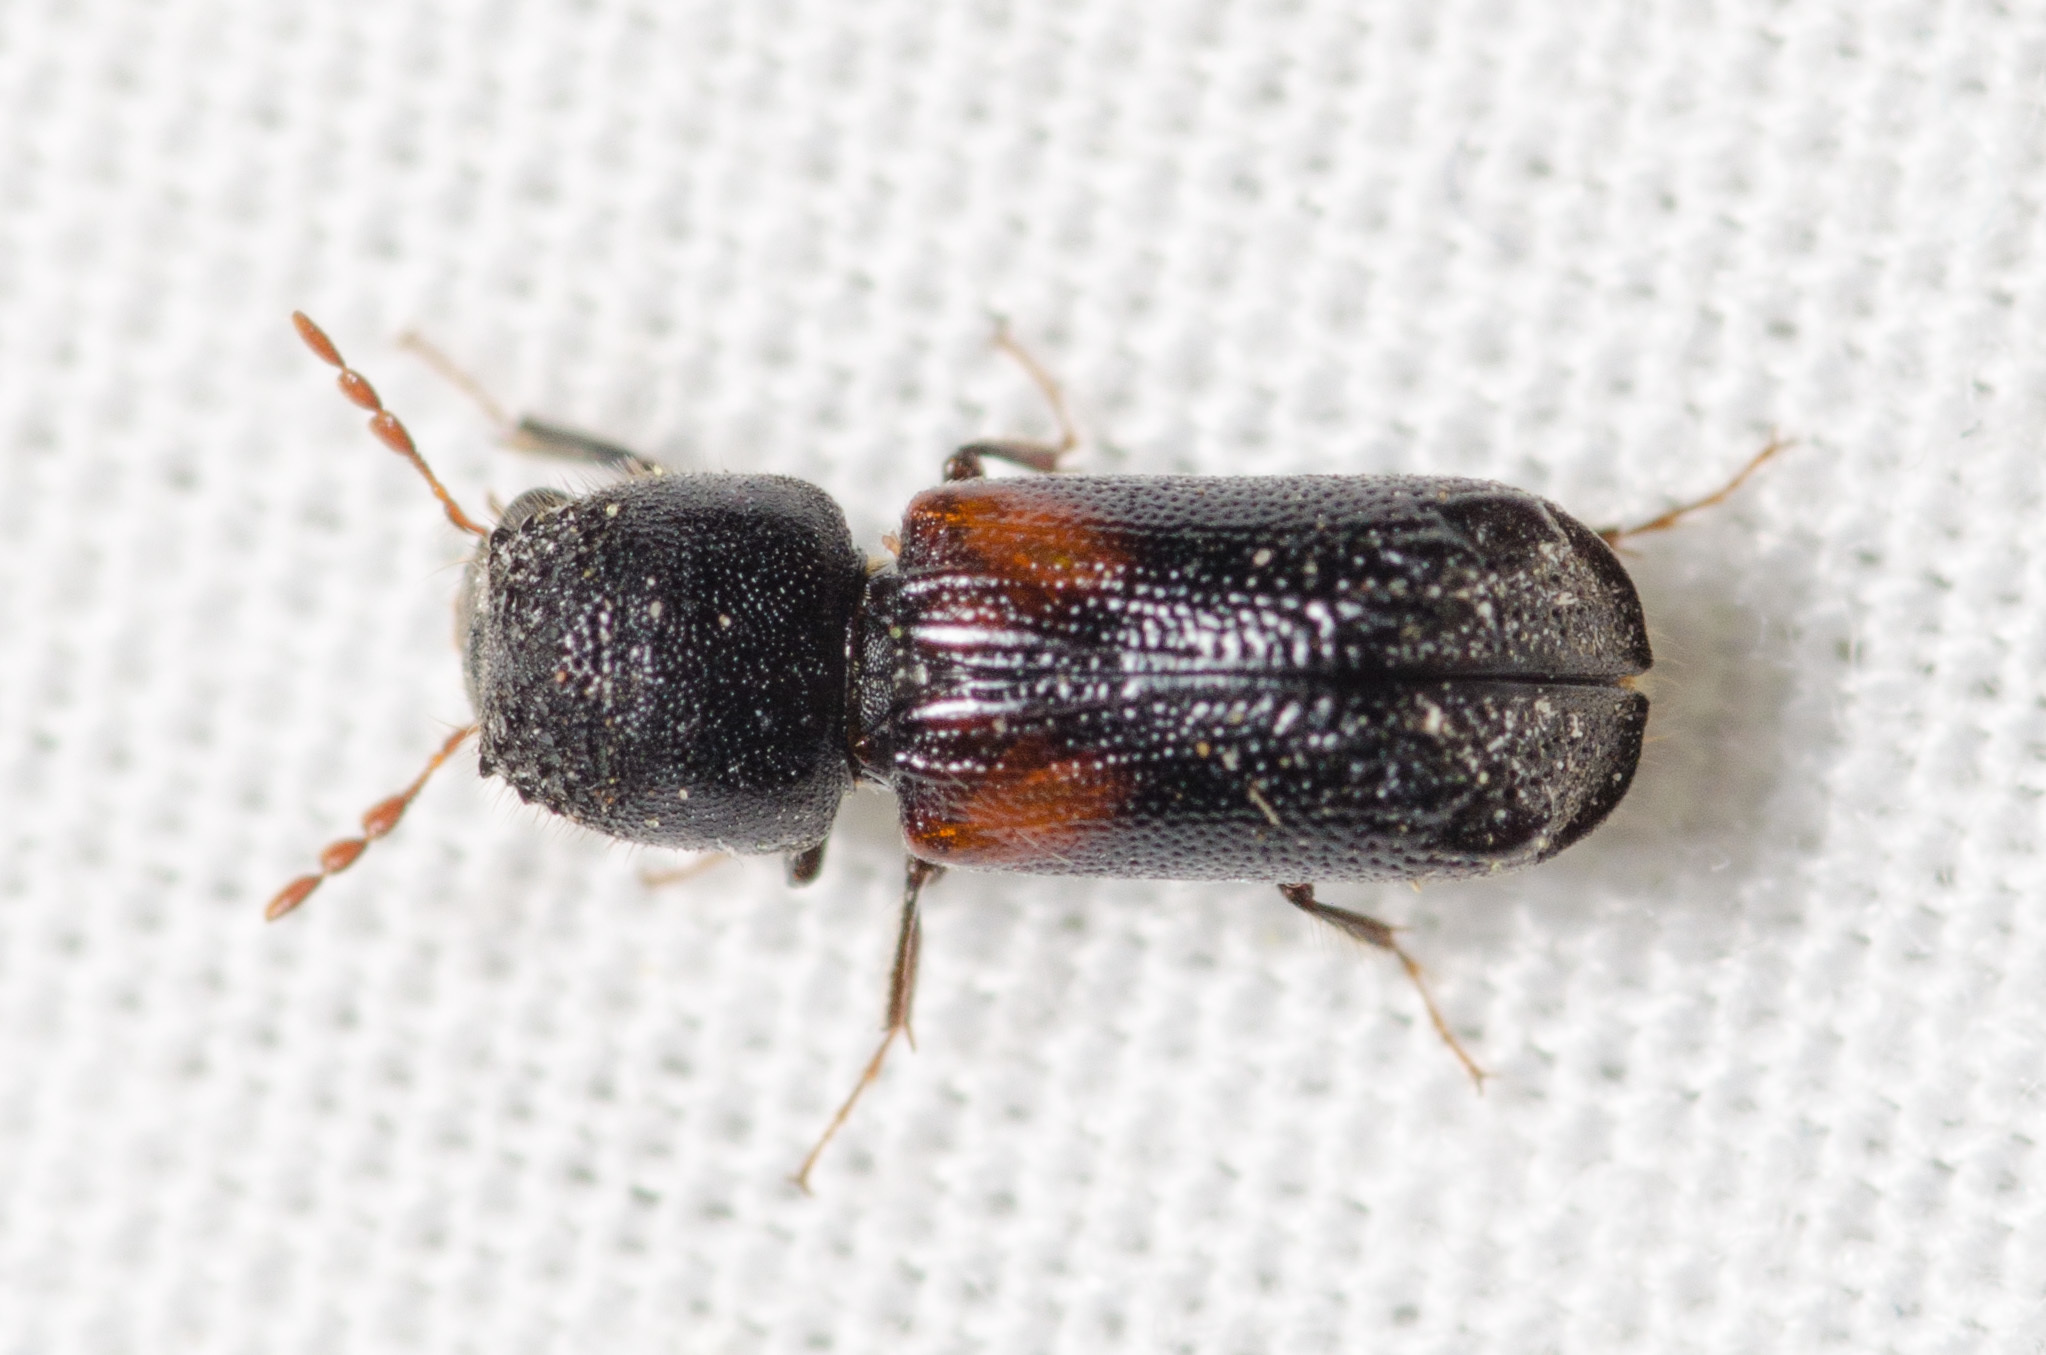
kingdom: Animalia
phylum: Arthropoda
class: Insecta
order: Coleoptera
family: Bostrichidae
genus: Xylobiops
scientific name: Xylobiops basilaris
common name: Red-shouldered bostrichid
